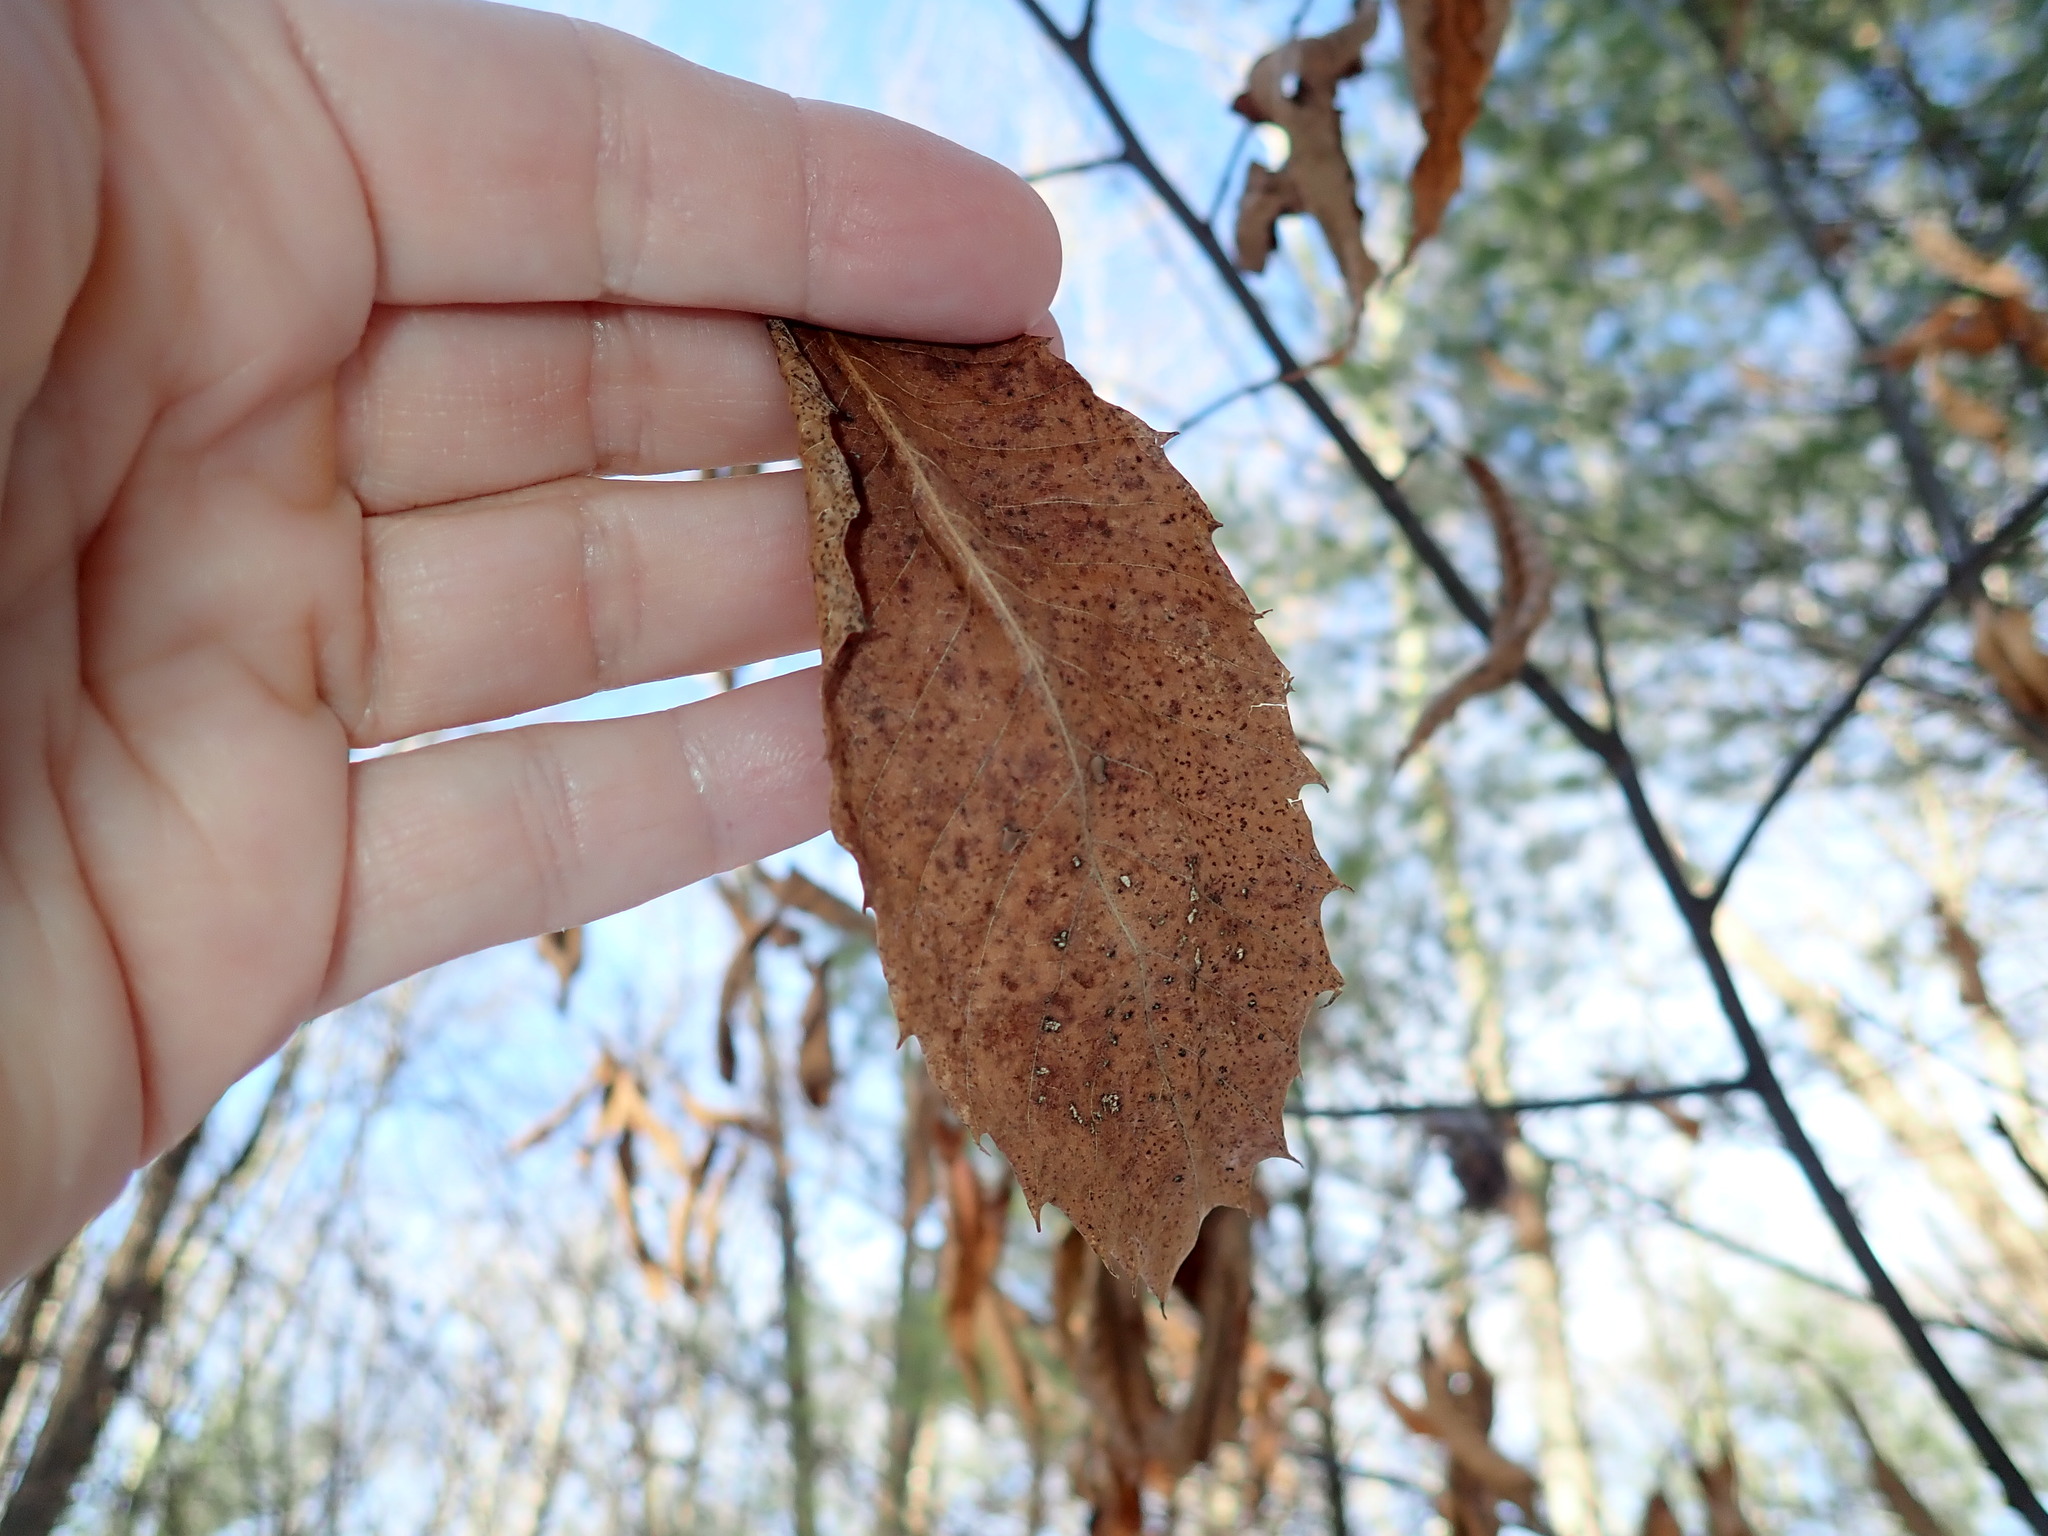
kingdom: Plantae
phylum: Tracheophyta
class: Magnoliopsida
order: Fagales
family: Fagaceae
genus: Castanea
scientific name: Castanea dentata
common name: American chestnut
